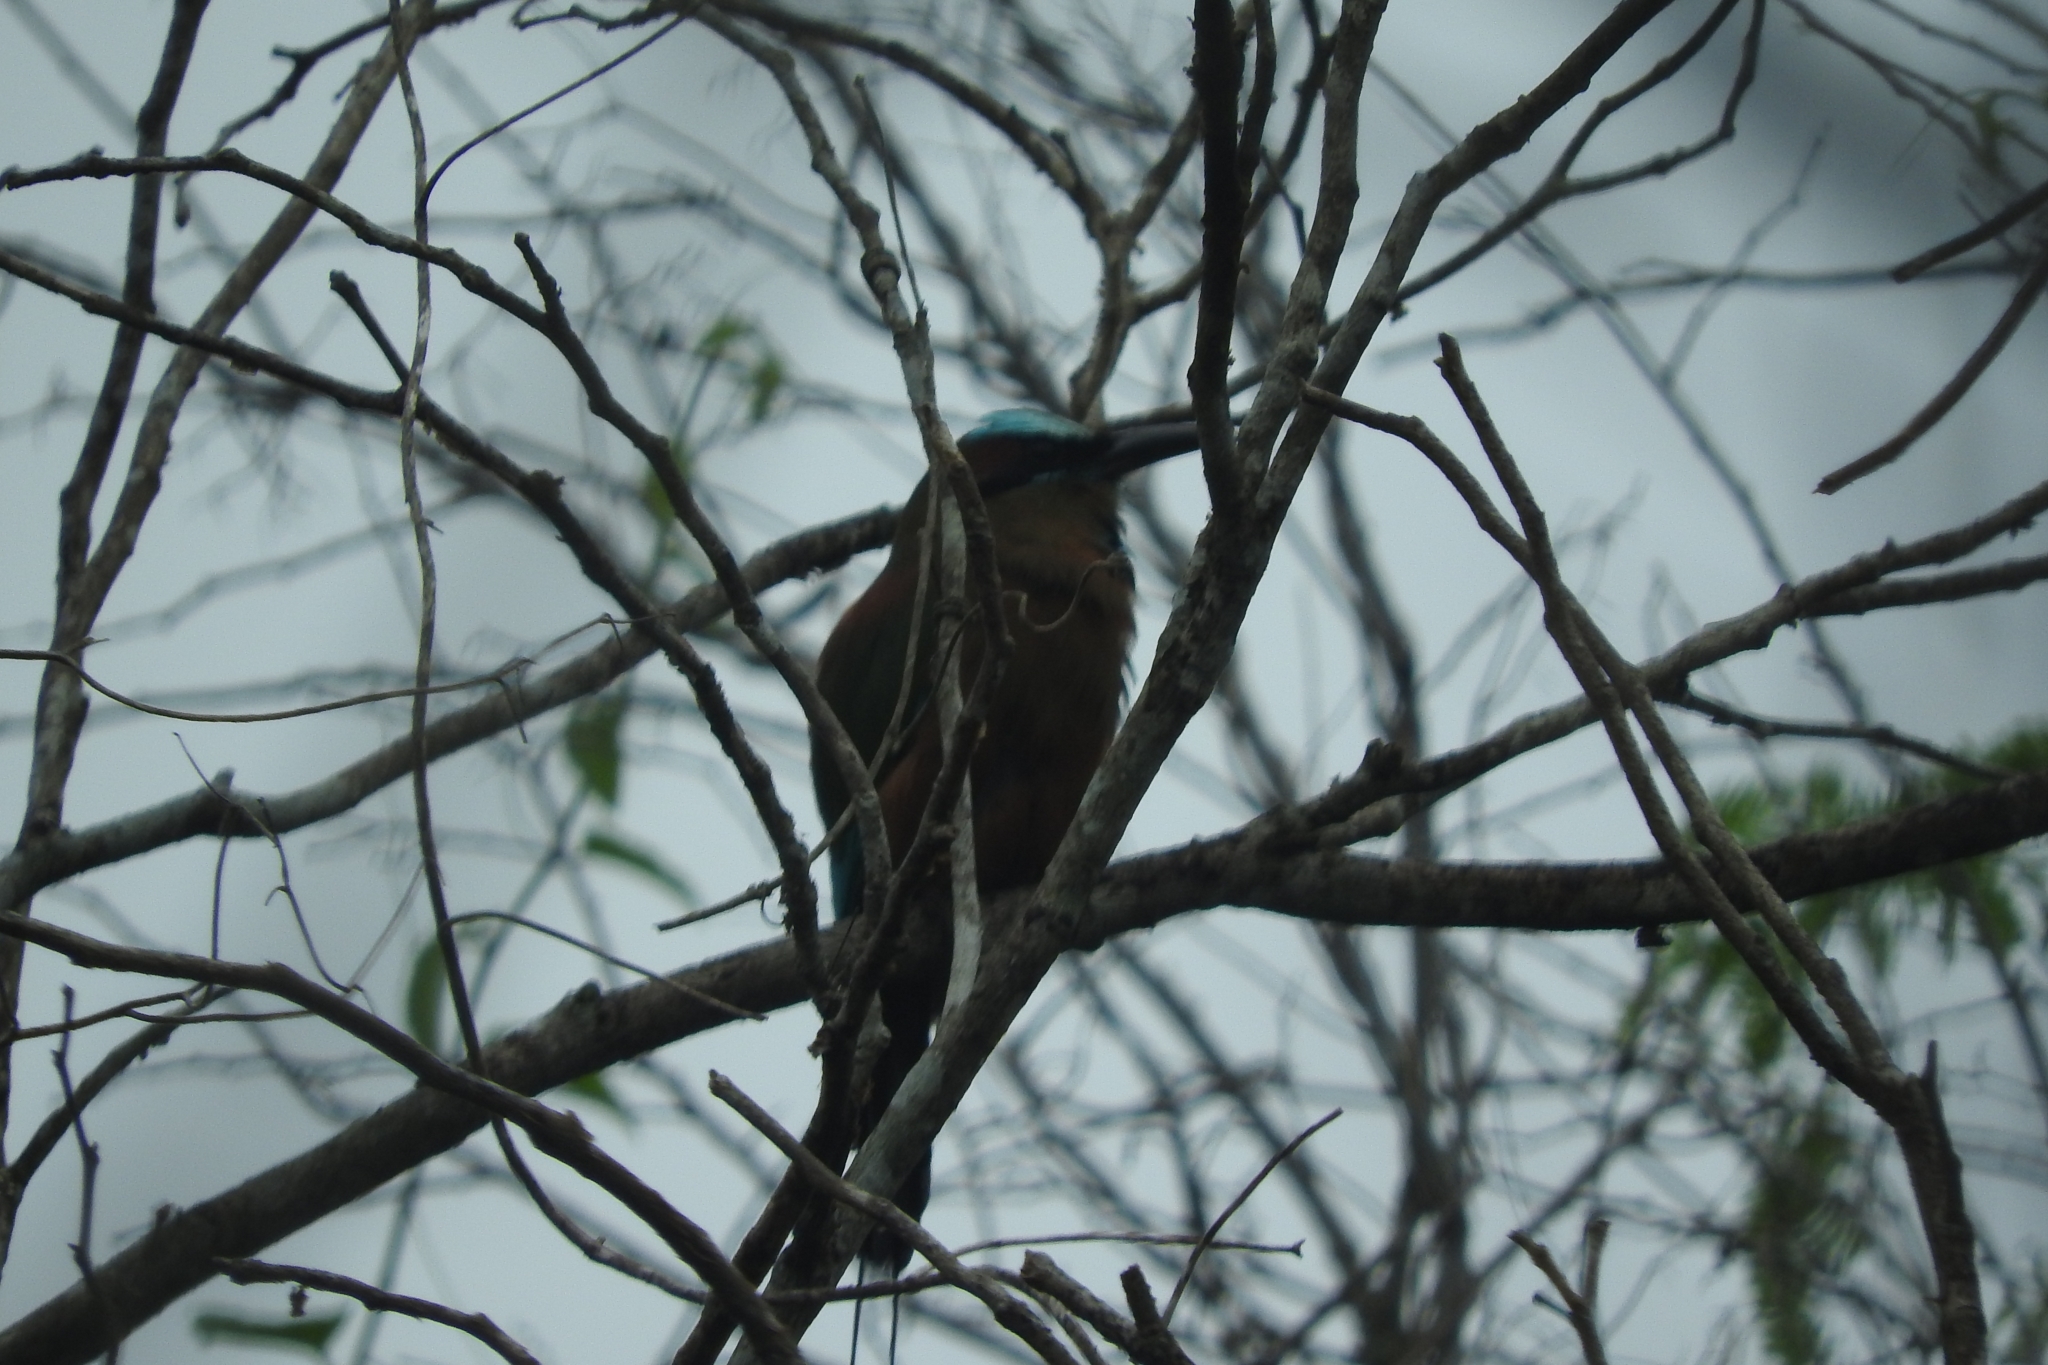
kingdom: Animalia
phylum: Chordata
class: Aves
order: Coraciiformes
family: Momotidae
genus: Eumomota
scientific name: Eumomota superciliosa
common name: Turquoise-browed motmot
